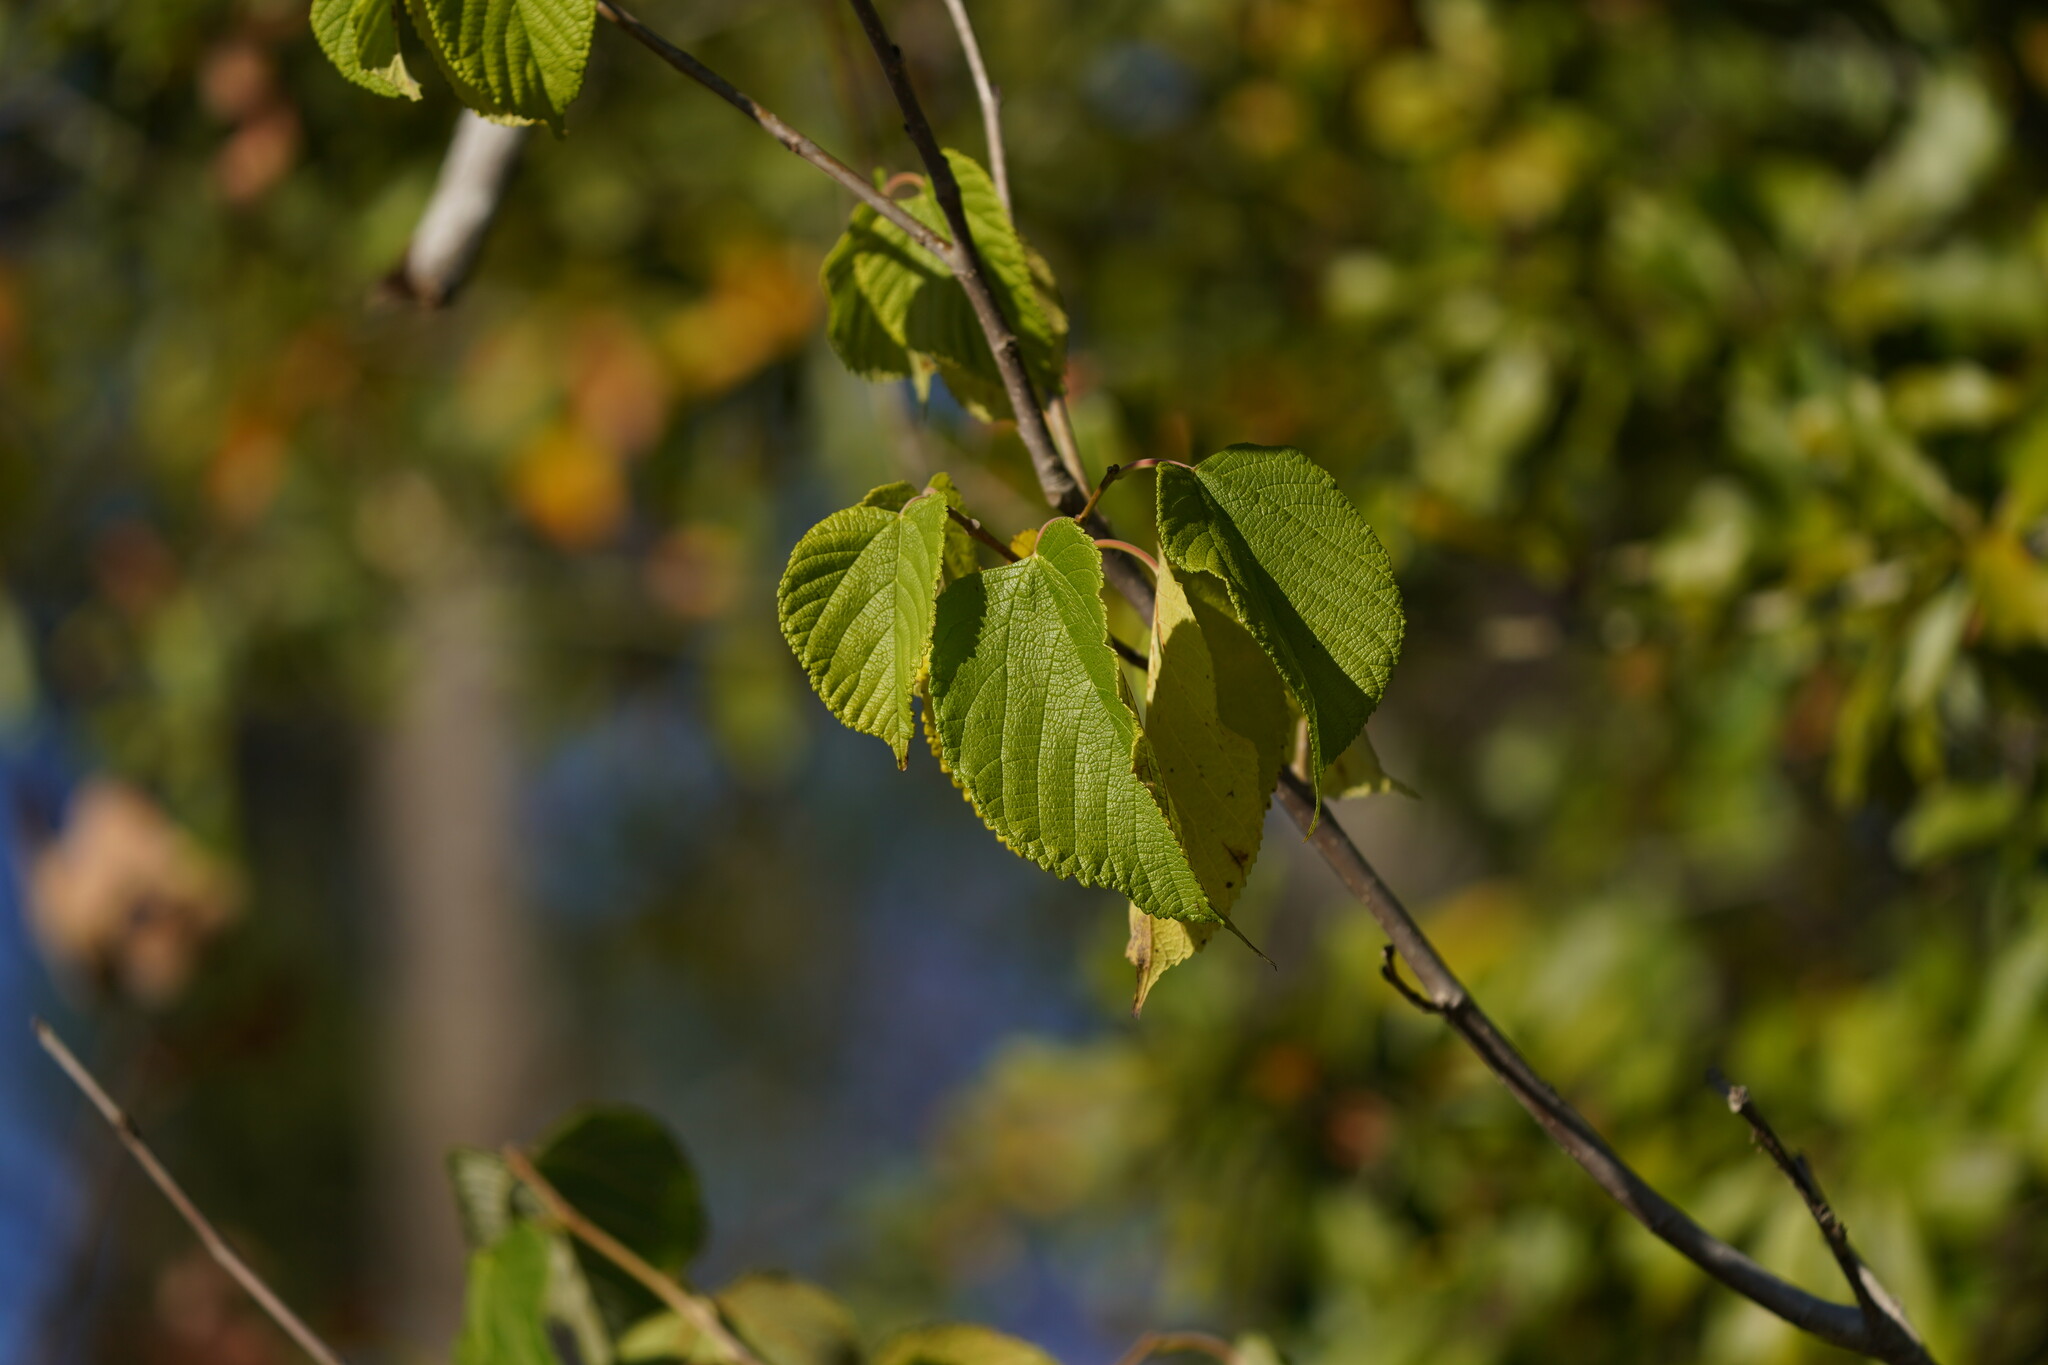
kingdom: Plantae
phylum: Tracheophyta
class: Magnoliopsida
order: Rosales
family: Moraceae
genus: Morus
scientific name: Morus rubra
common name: Red mulberry
